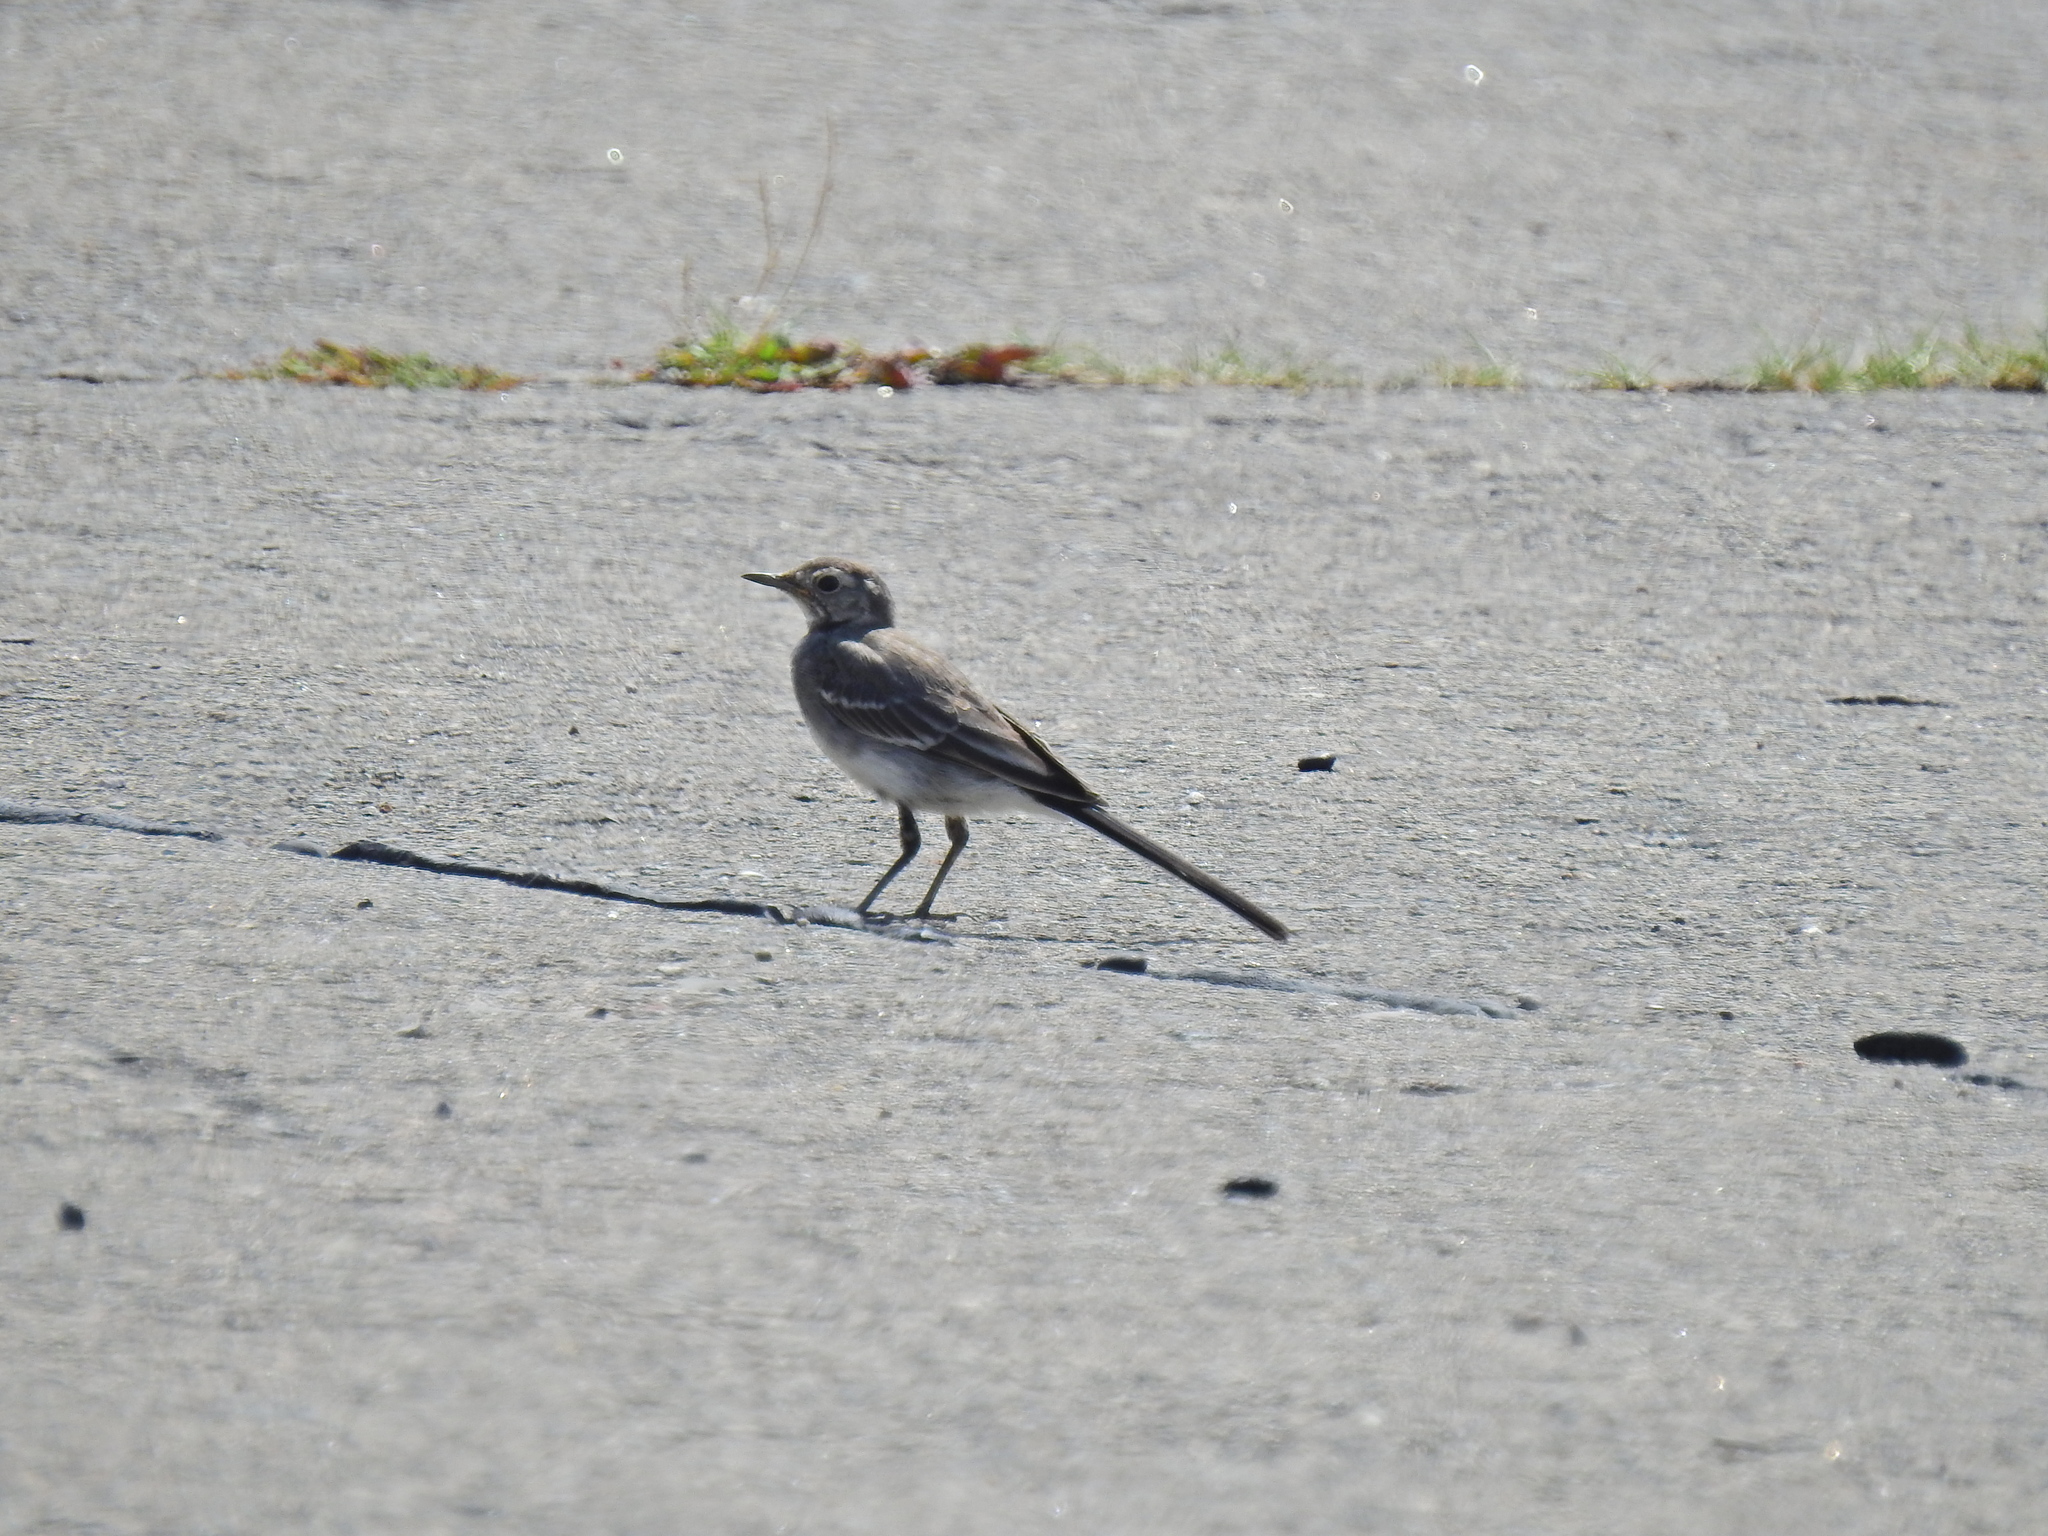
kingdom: Animalia
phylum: Chordata
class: Aves
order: Passeriformes
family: Motacillidae
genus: Motacilla
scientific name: Motacilla alba
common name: White wagtail
